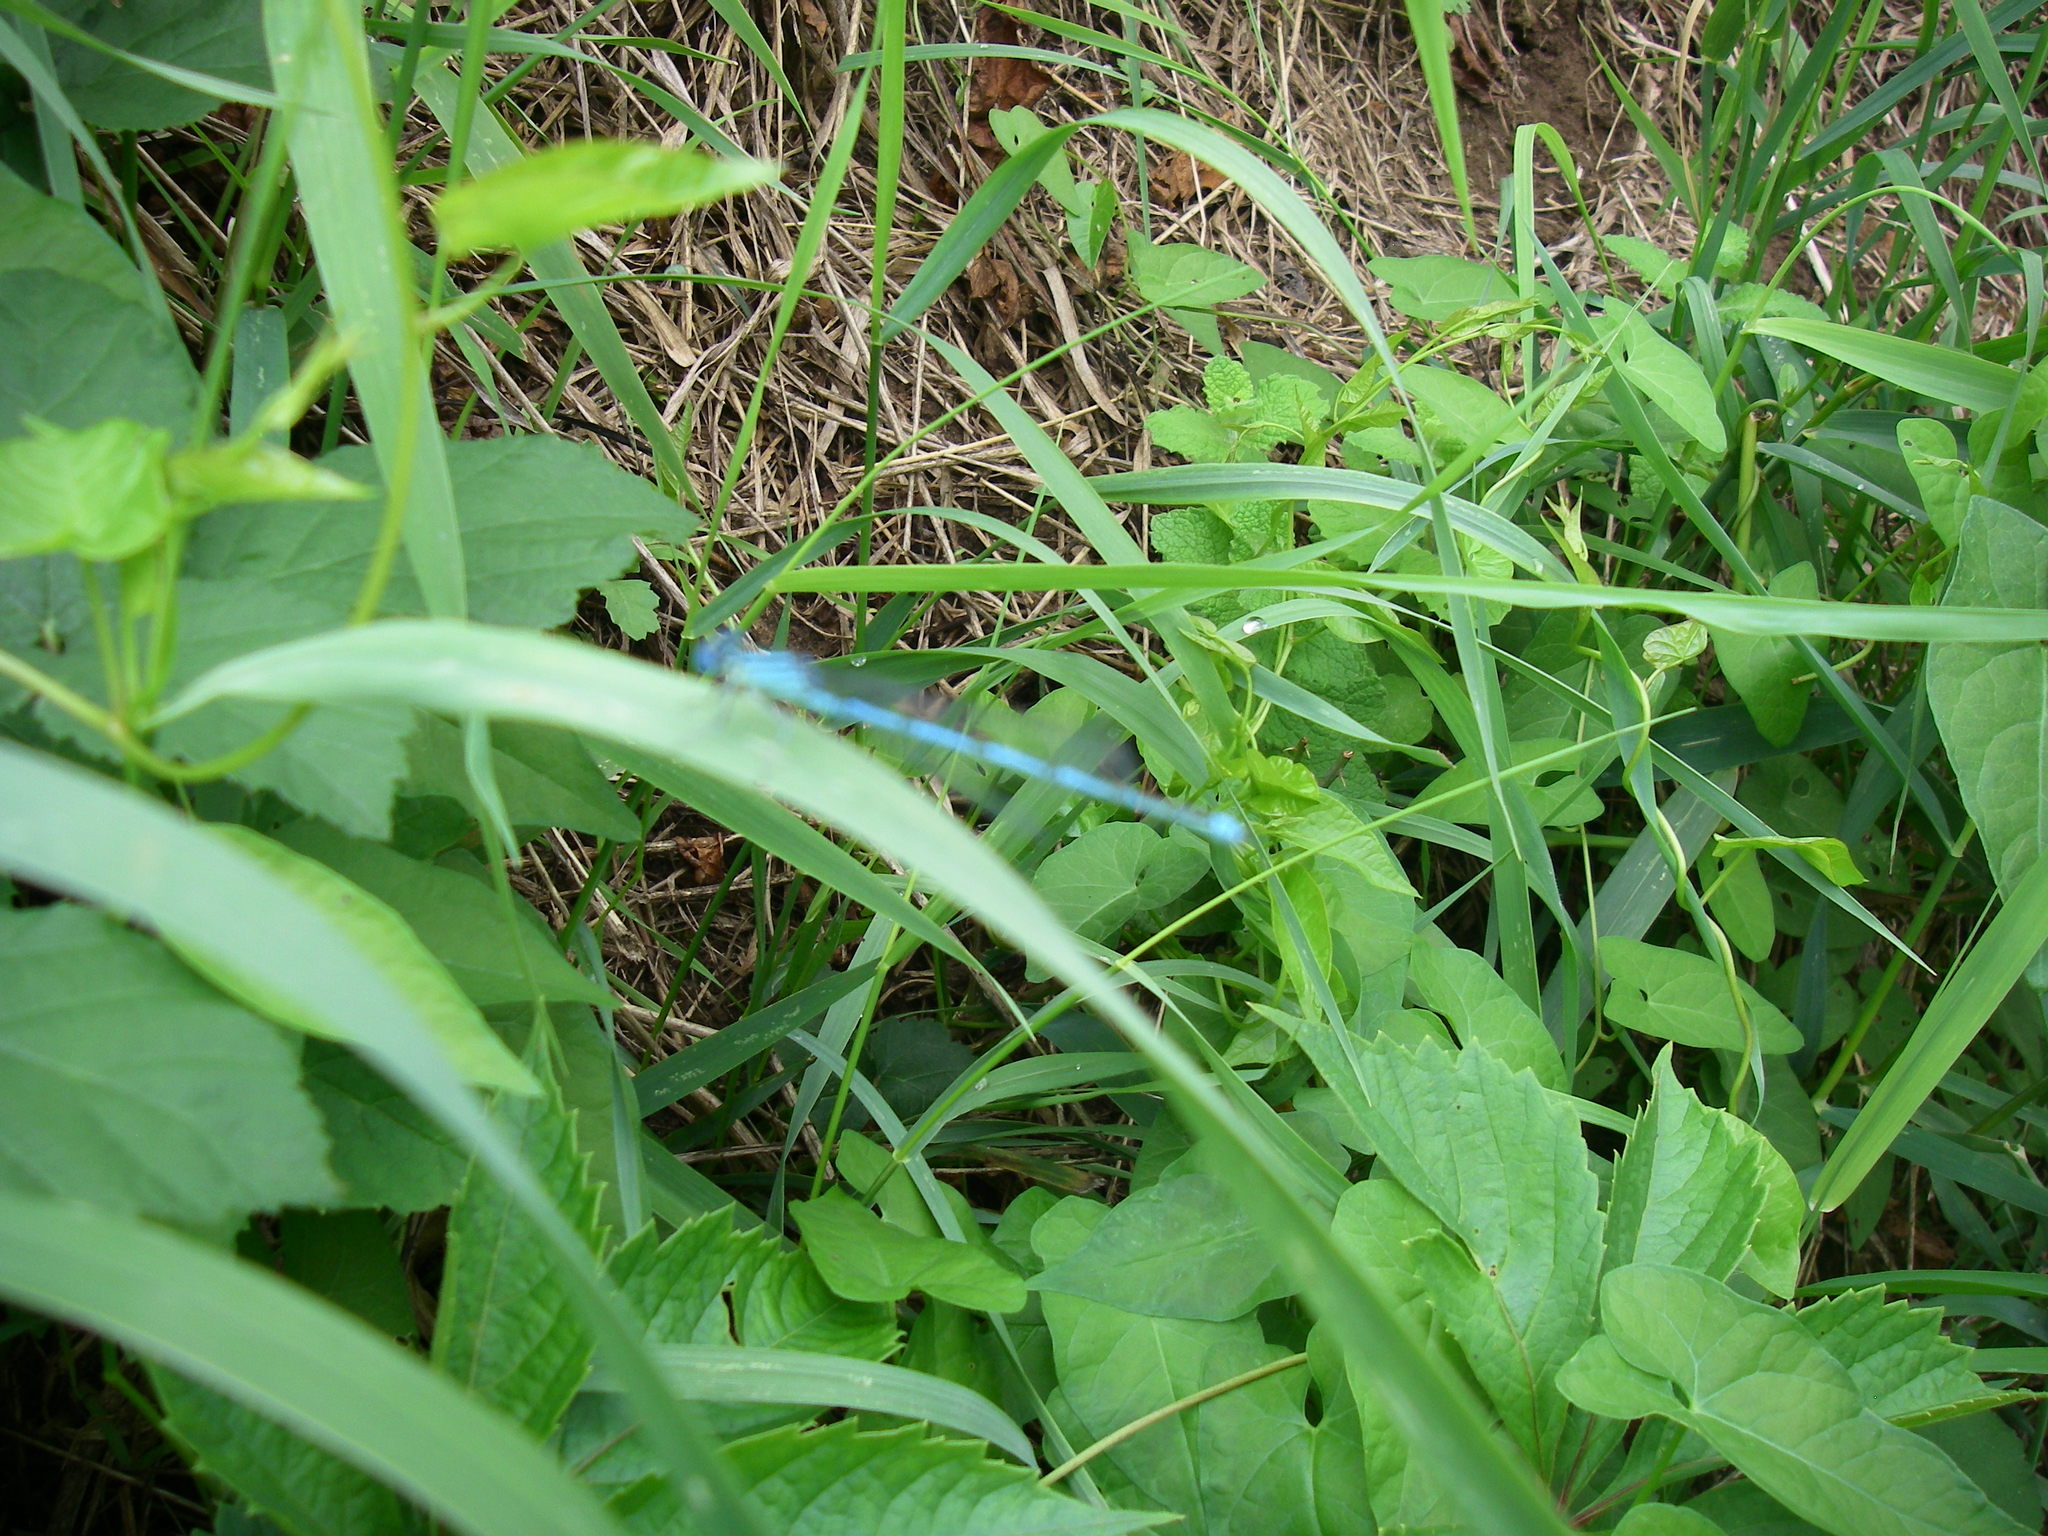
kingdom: Animalia
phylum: Arthropoda
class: Insecta
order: Odonata
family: Coenagrionidae
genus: Erythromma
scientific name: Erythromma lindenii
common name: Blue-eye
